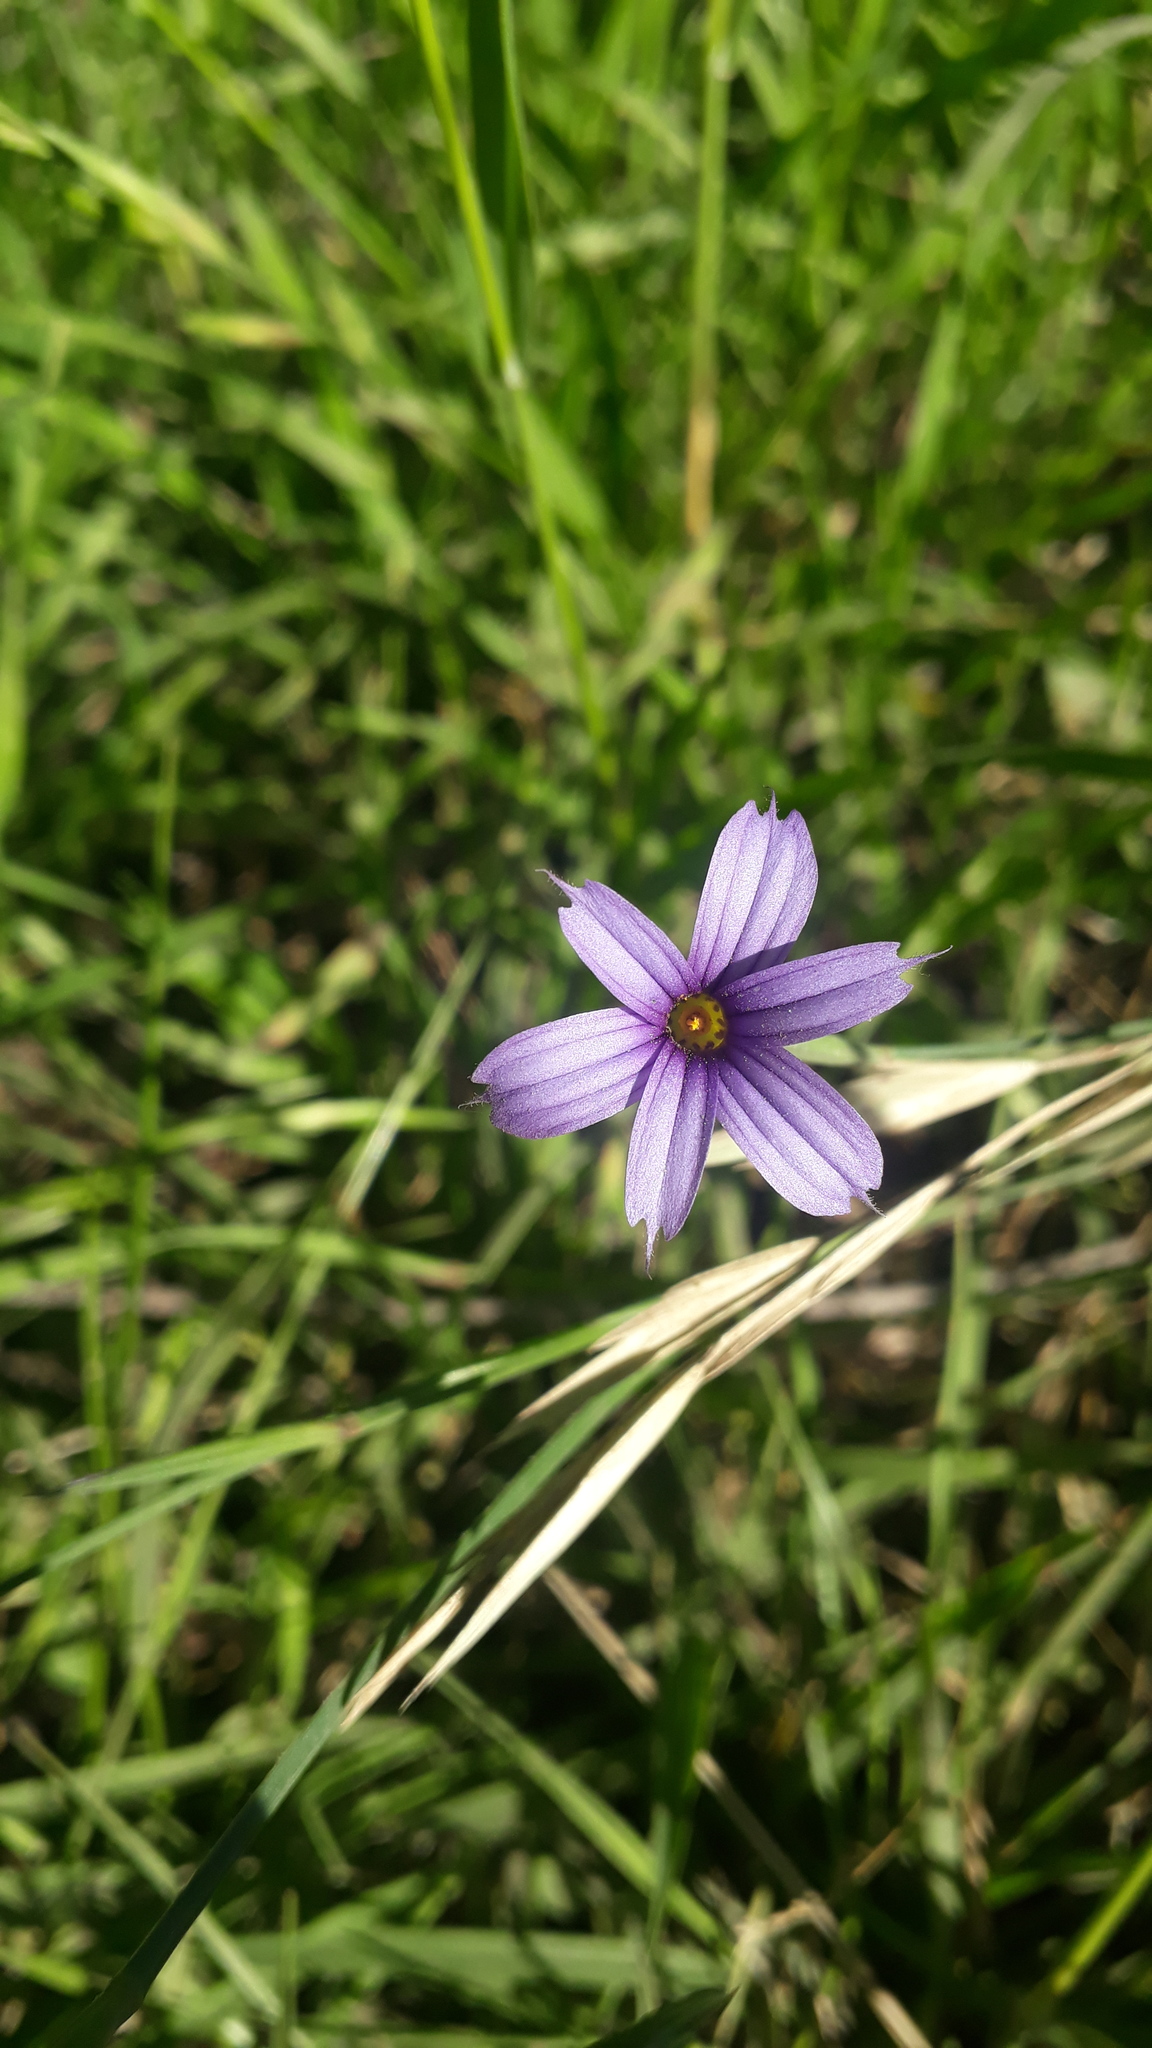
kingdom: Plantae
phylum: Tracheophyta
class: Liliopsida
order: Asparagales
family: Iridaceae
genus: Sisyrinchium
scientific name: Sisyrinchium chilense
